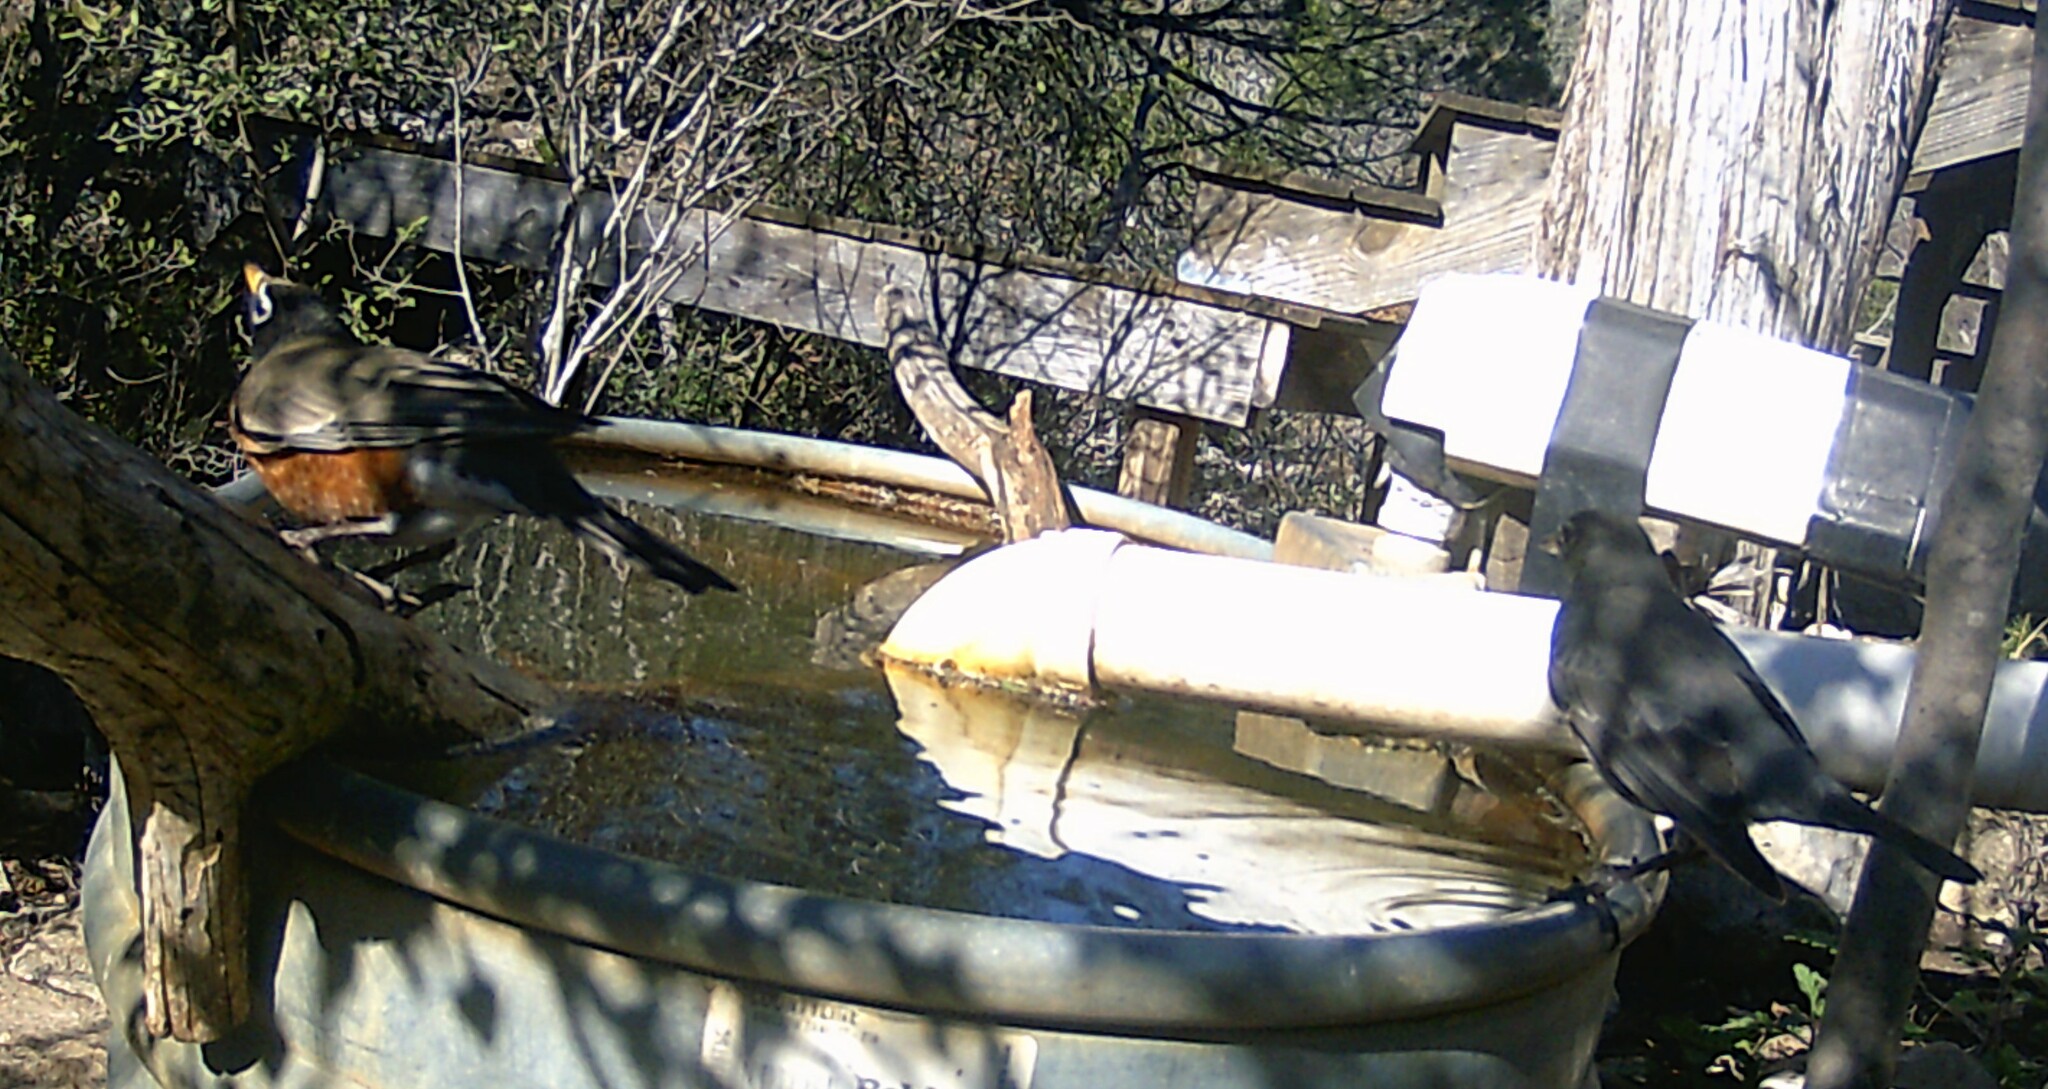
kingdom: Animalia
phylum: Chordata
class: Aves
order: Passeriformes
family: Turdidae
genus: Turdus
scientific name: Turdus migratorius
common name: American robin
